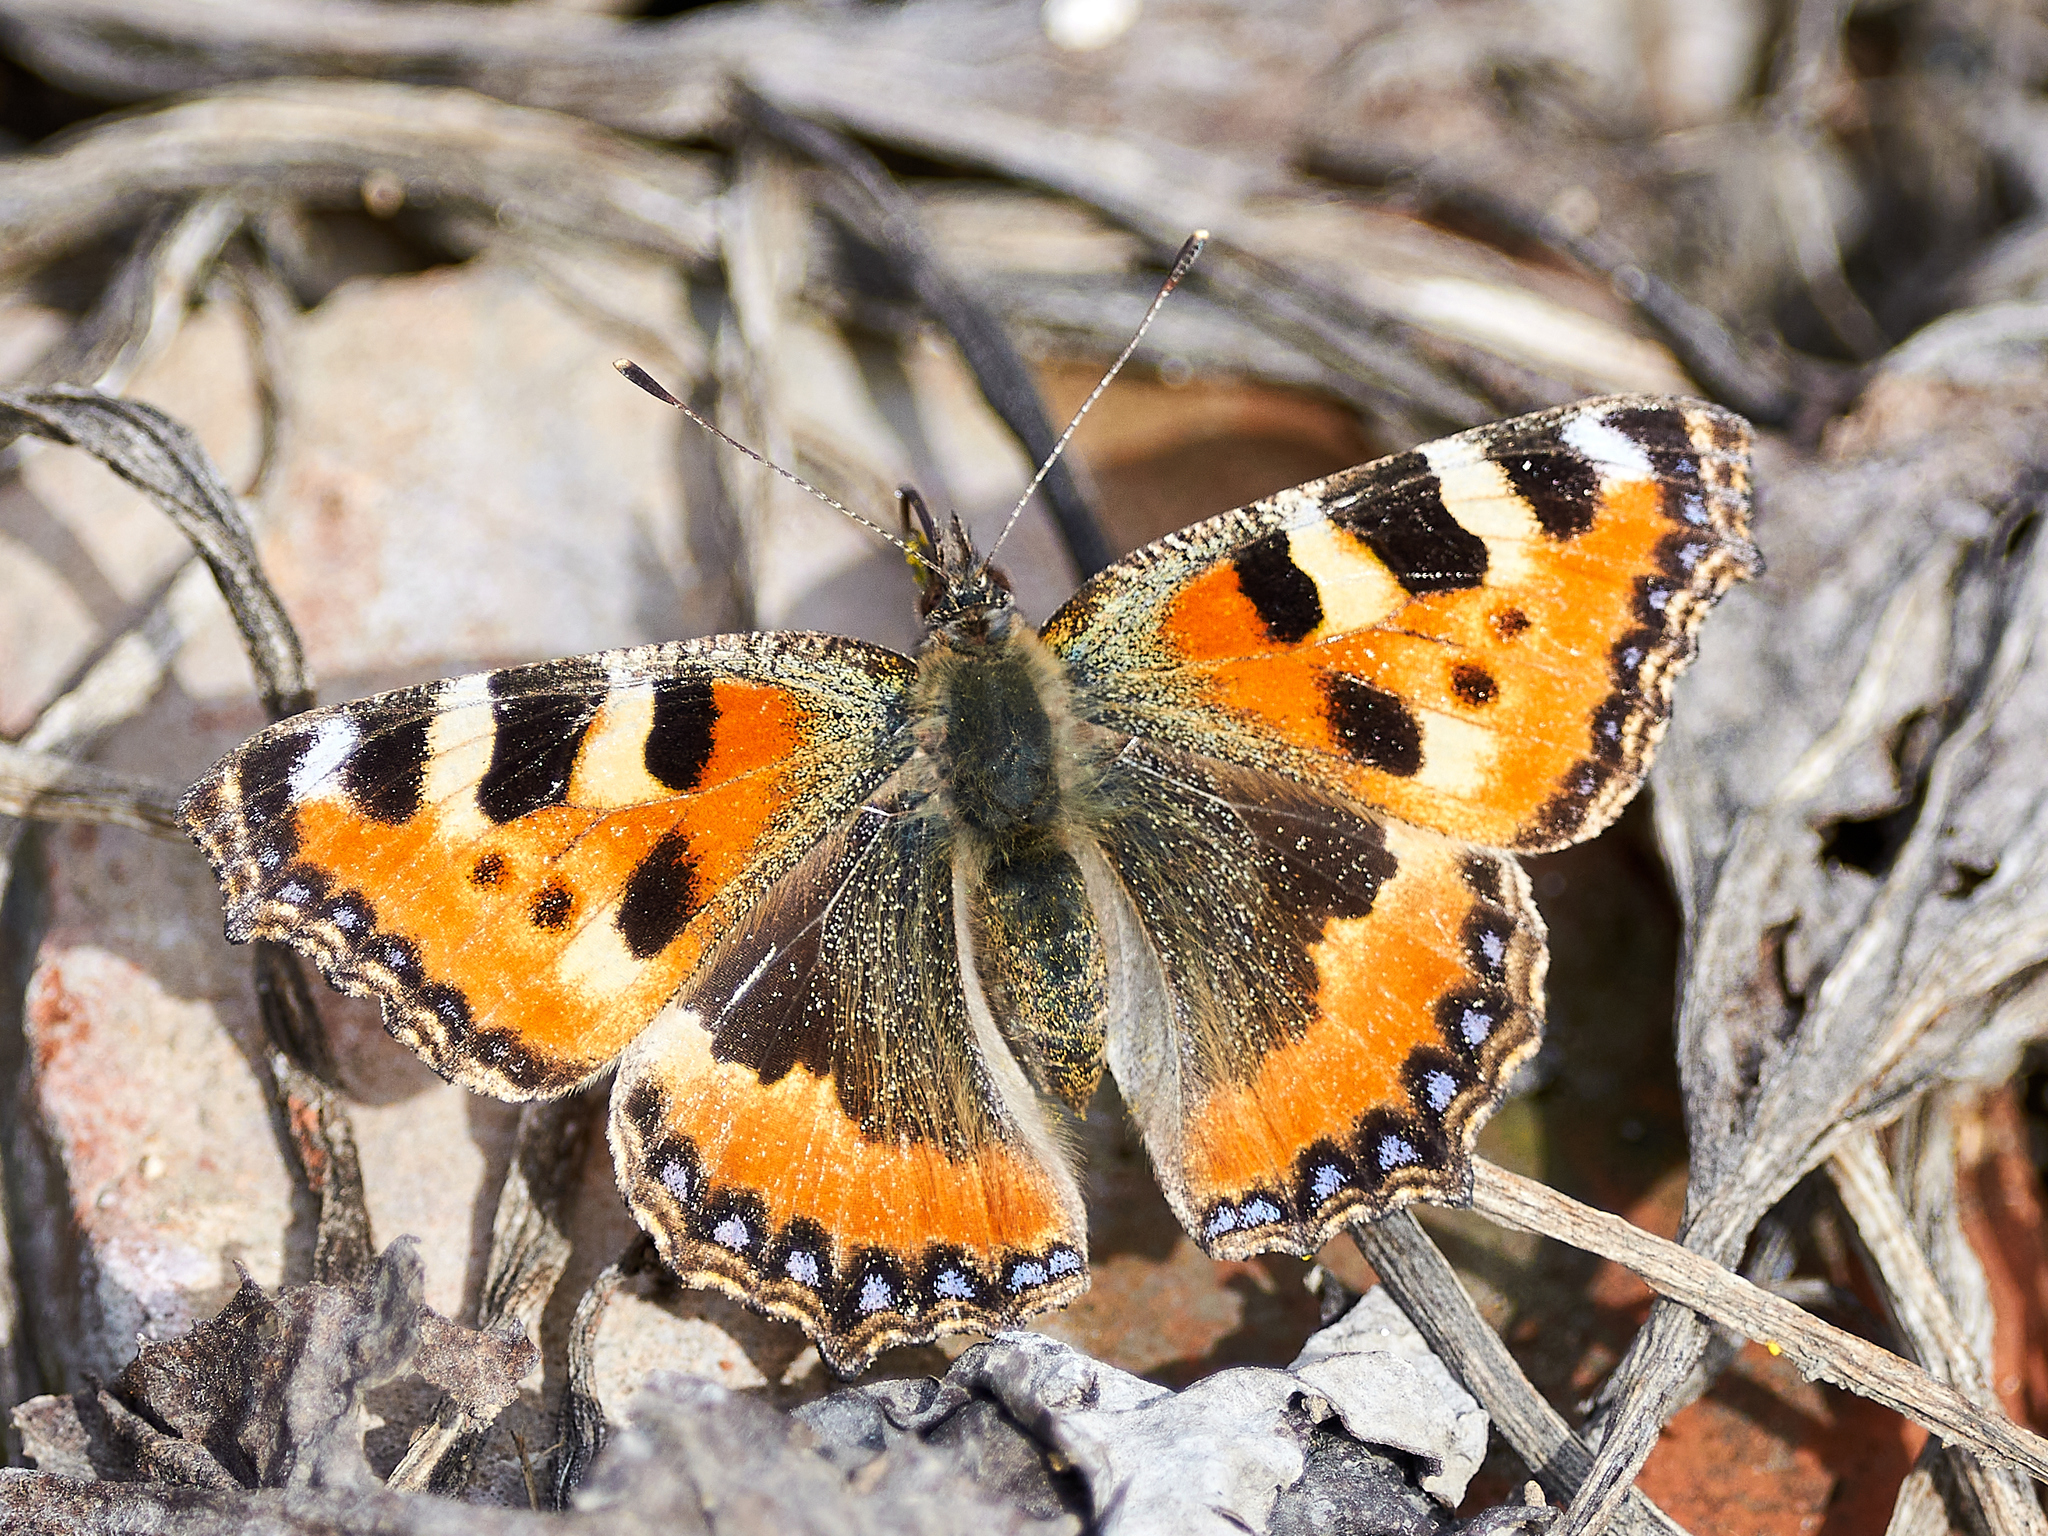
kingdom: Animalia
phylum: Arthropoda
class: Insecta
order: Lepidoptera
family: Nymphalidae
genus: Aglais
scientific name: Aglais urticae
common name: Small tortoiseshell
